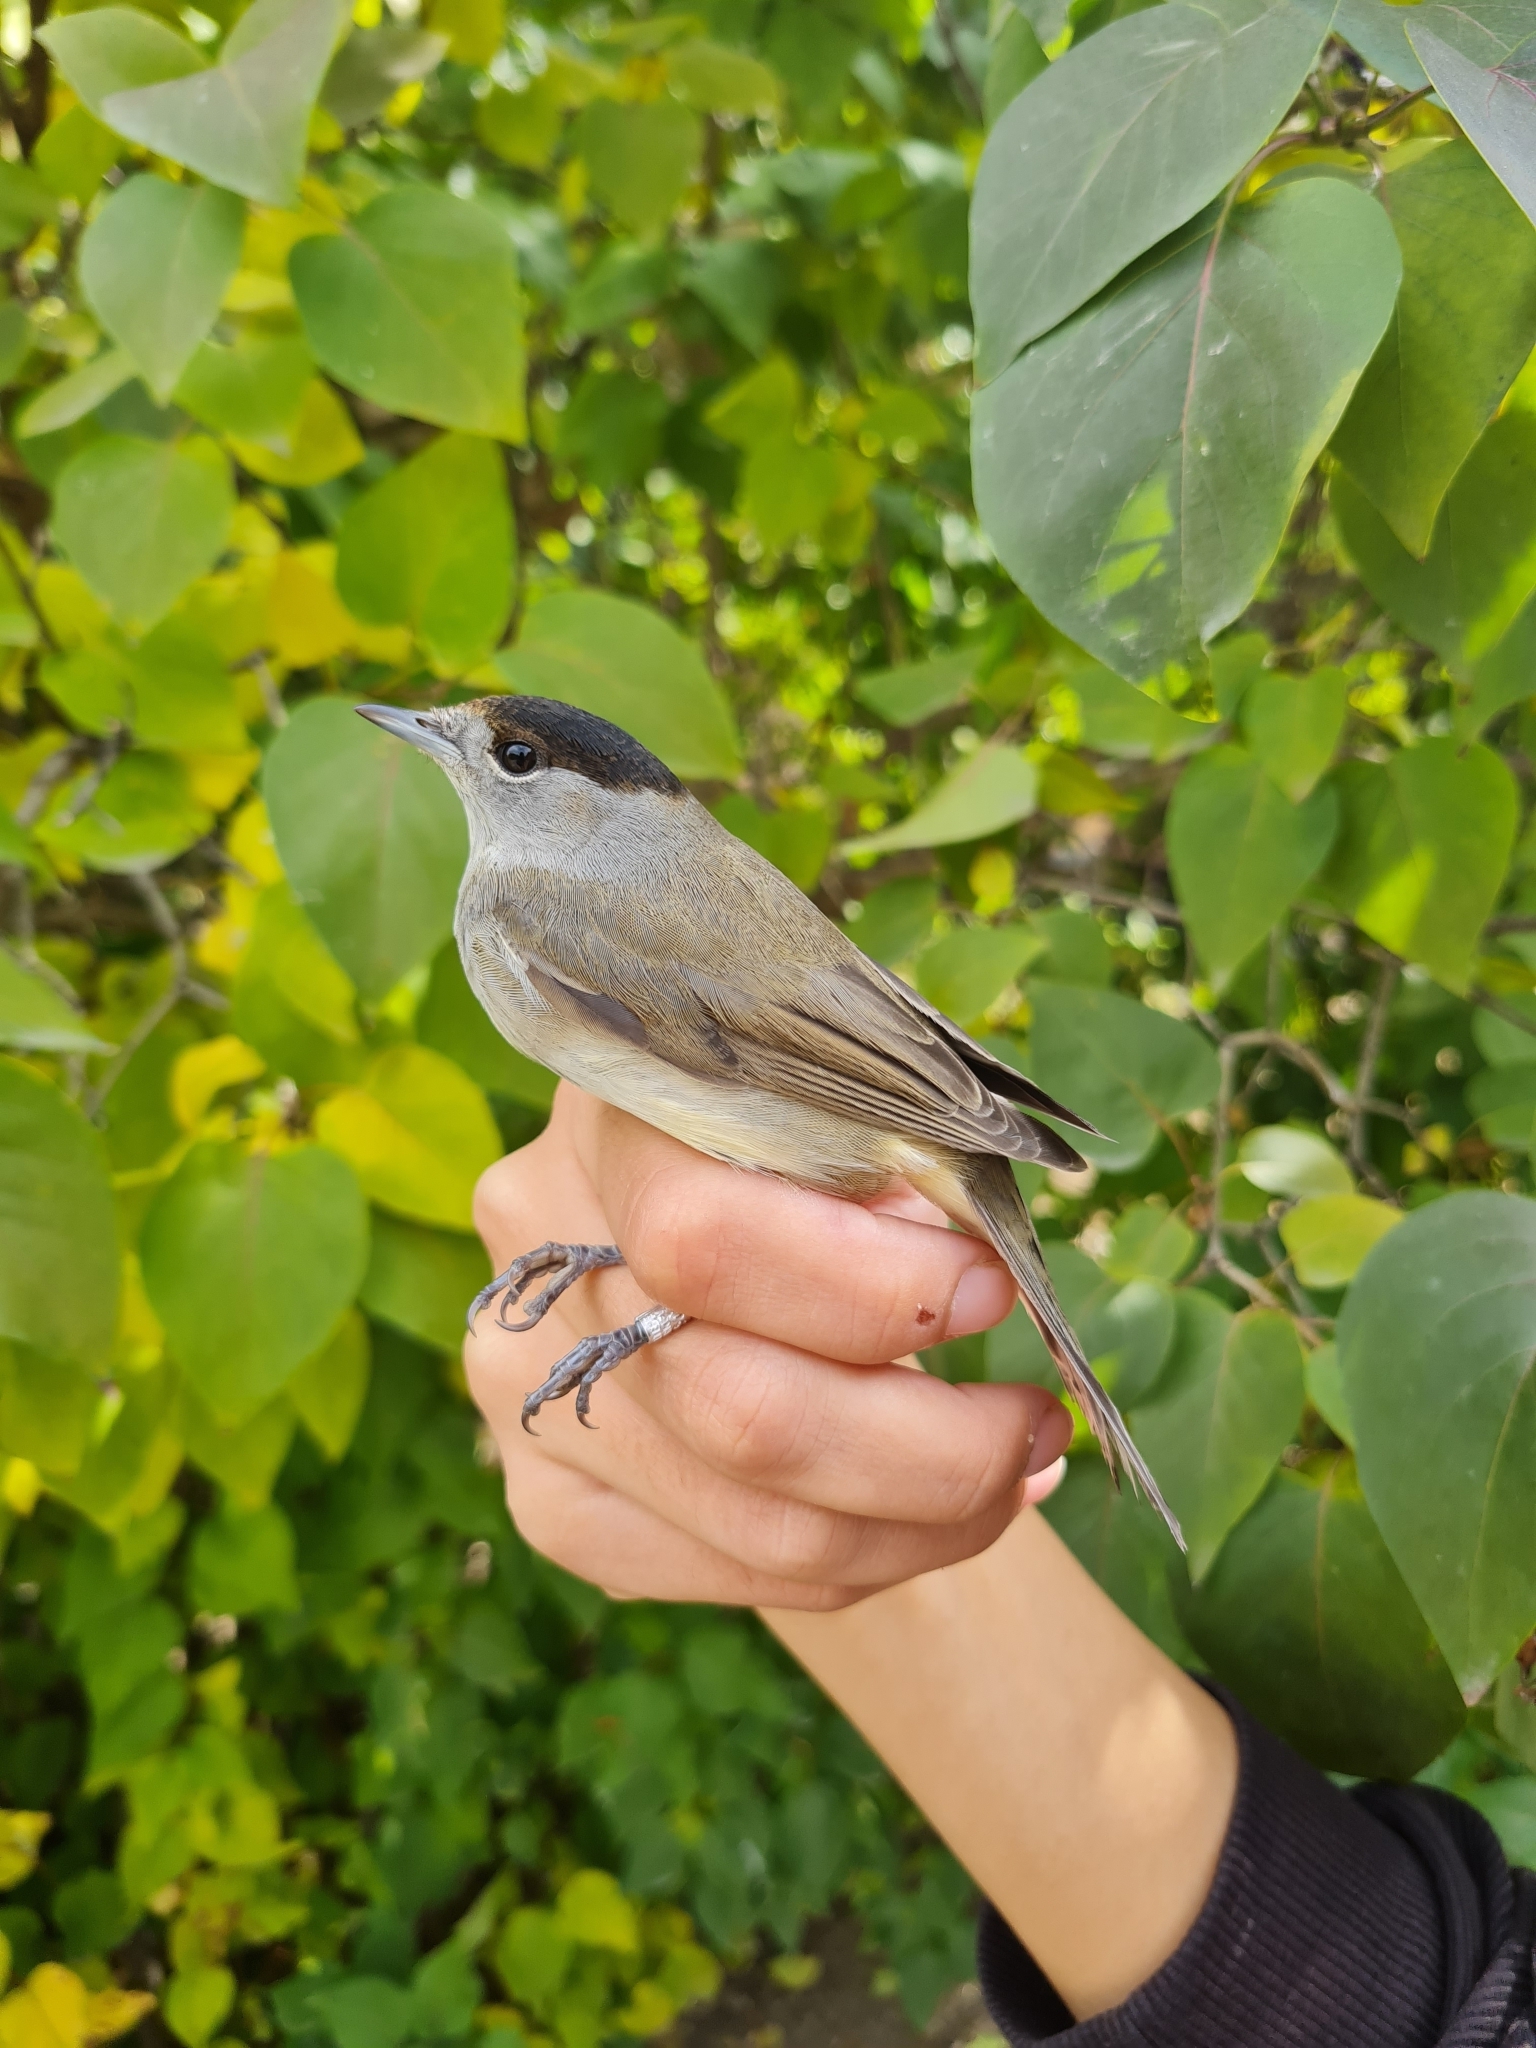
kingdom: Animalia
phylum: Chordata
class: Aves
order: Passeriformes
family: Sylviidae
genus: Sylvia
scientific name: Sylvia atricapilla
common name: Eurasian blackcap
